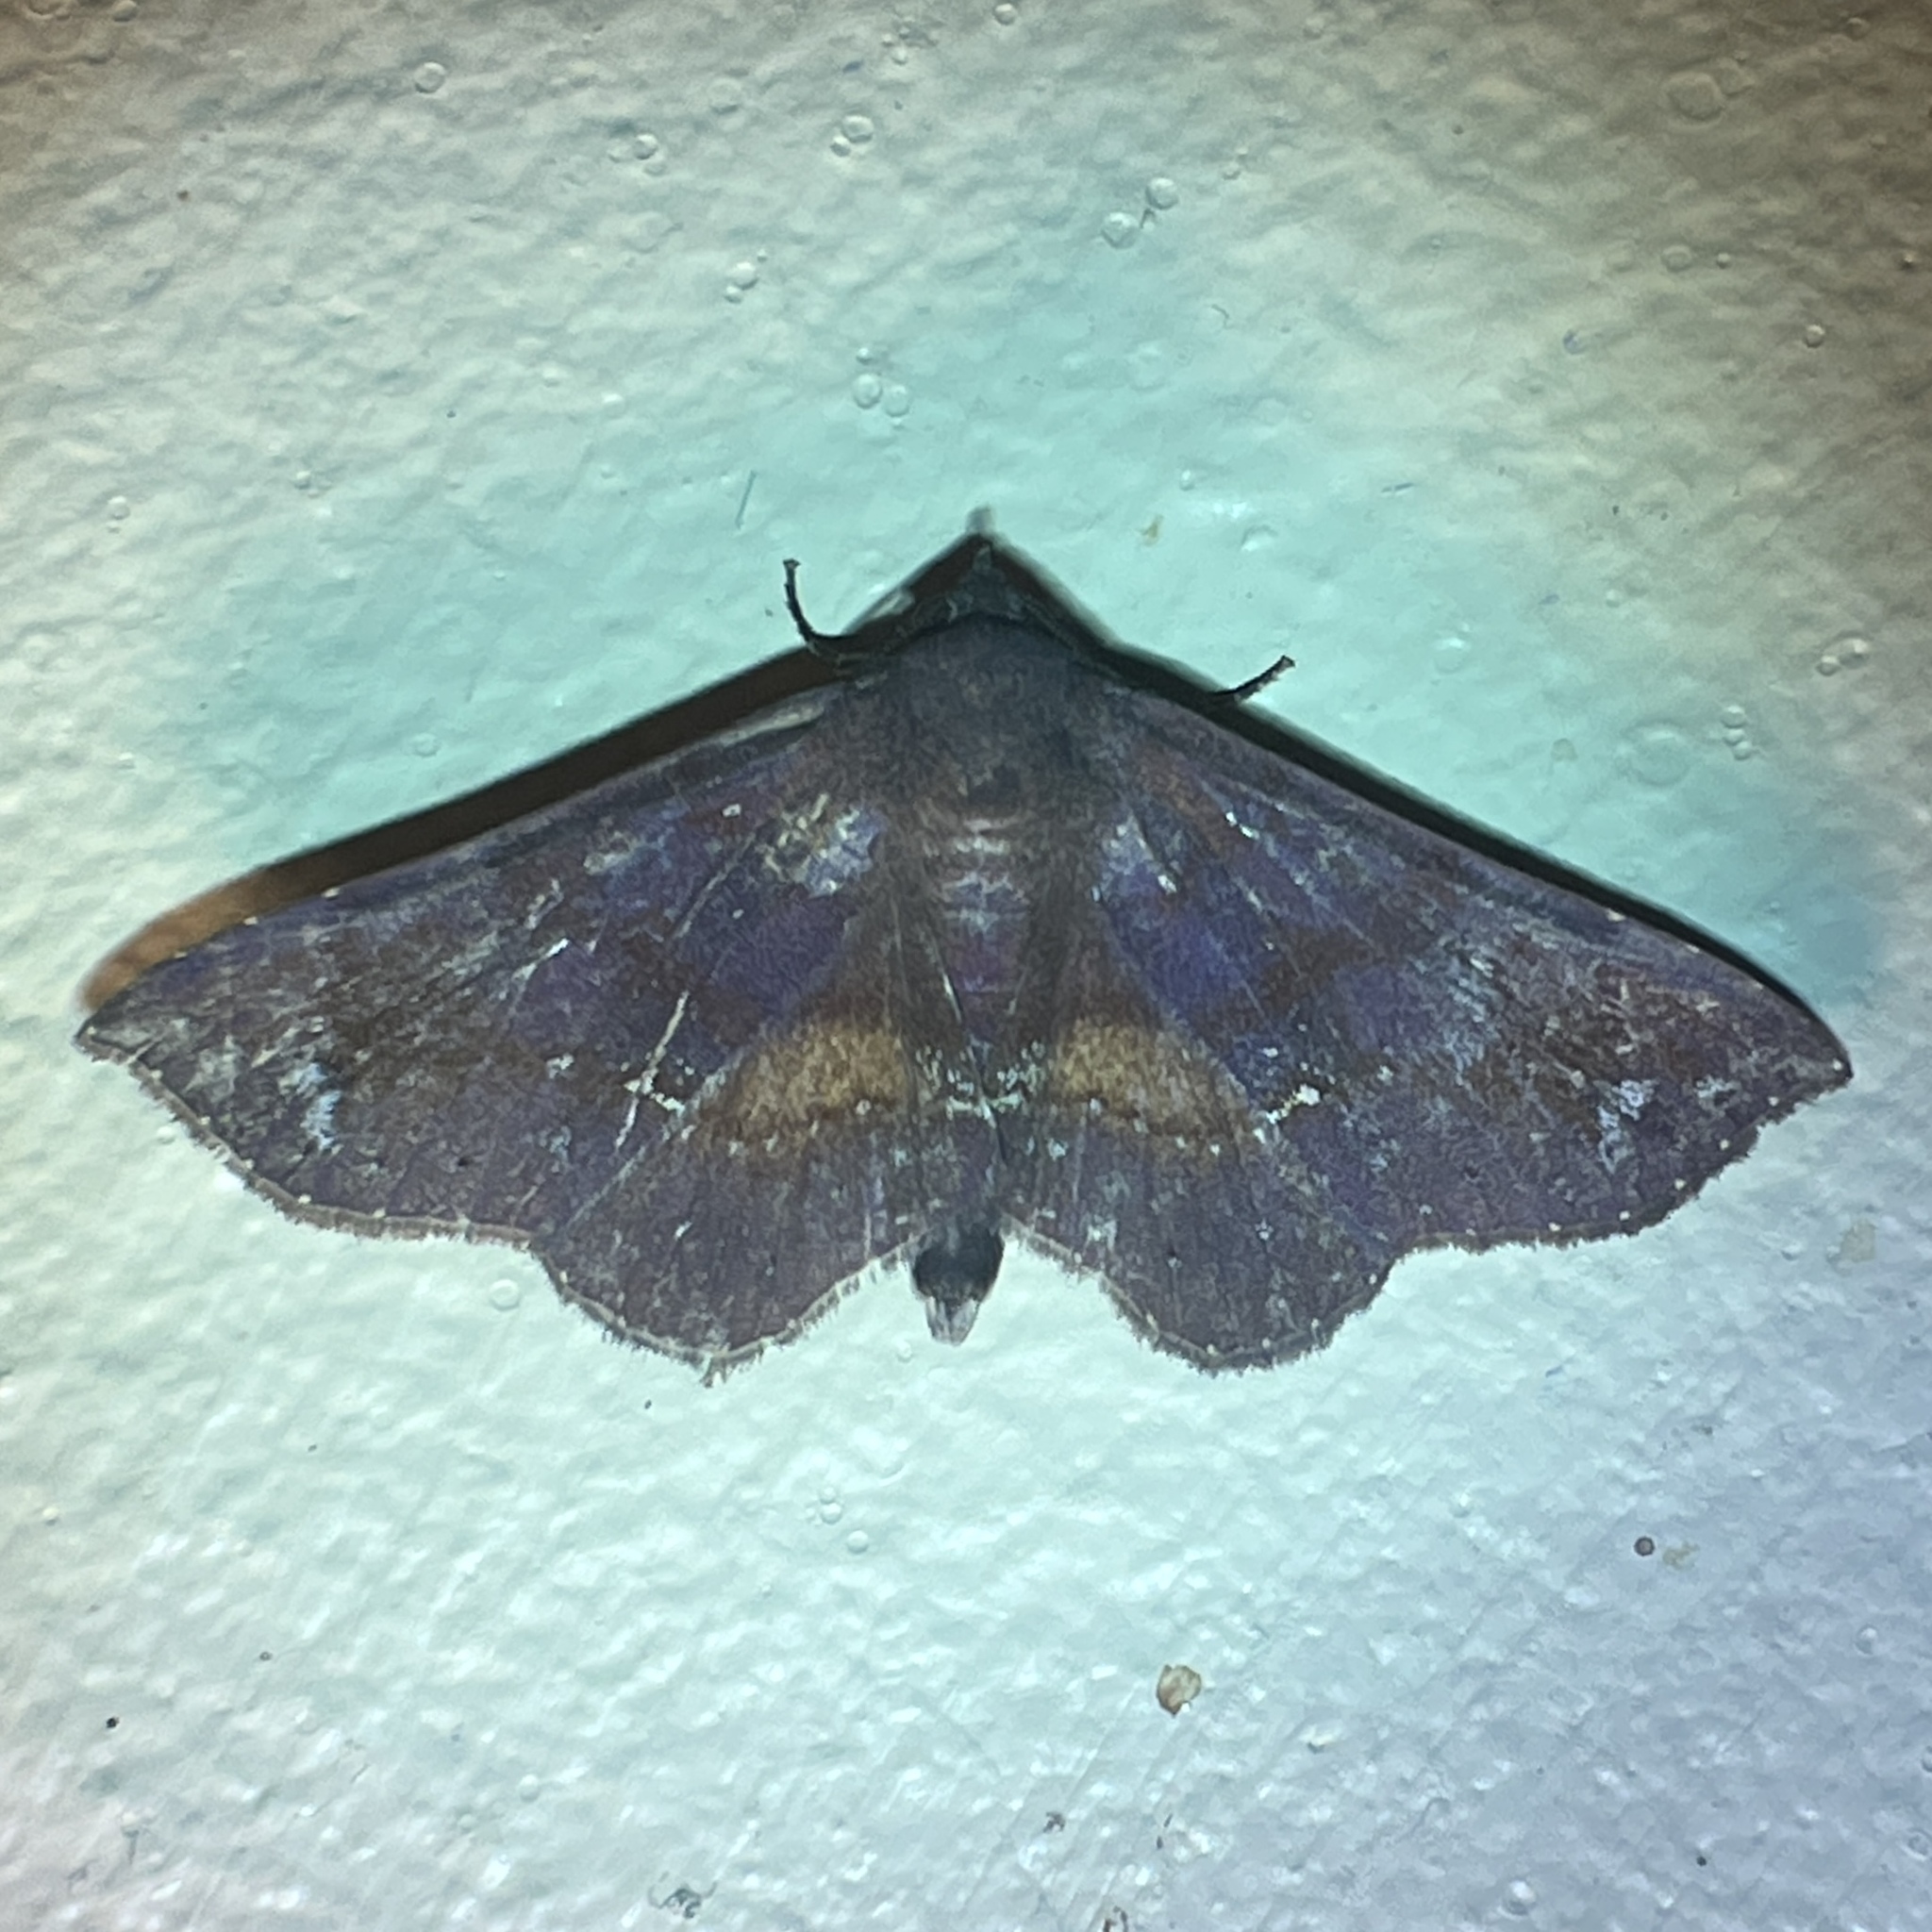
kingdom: Animalia
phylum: Arthropoda
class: Insecta
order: Lepidoptera
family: Erebidae
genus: Gabyna
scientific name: Gabyna placida
